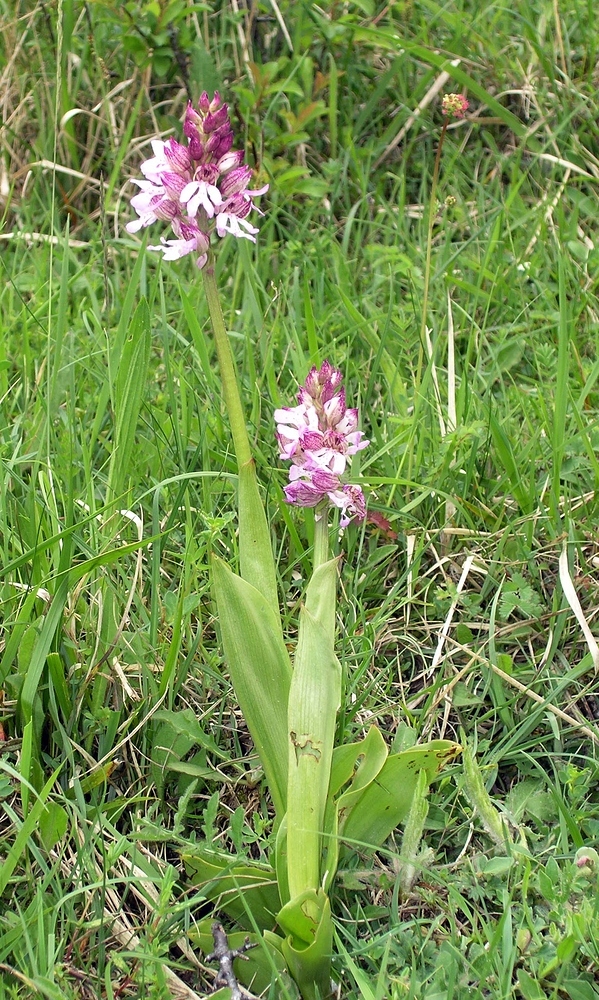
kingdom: Plantae
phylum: Tracheophyta
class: Liliopsida
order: Asparagales
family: Orchidaceae
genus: Orchis
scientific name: Orchis purpurea
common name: Lady orchid
